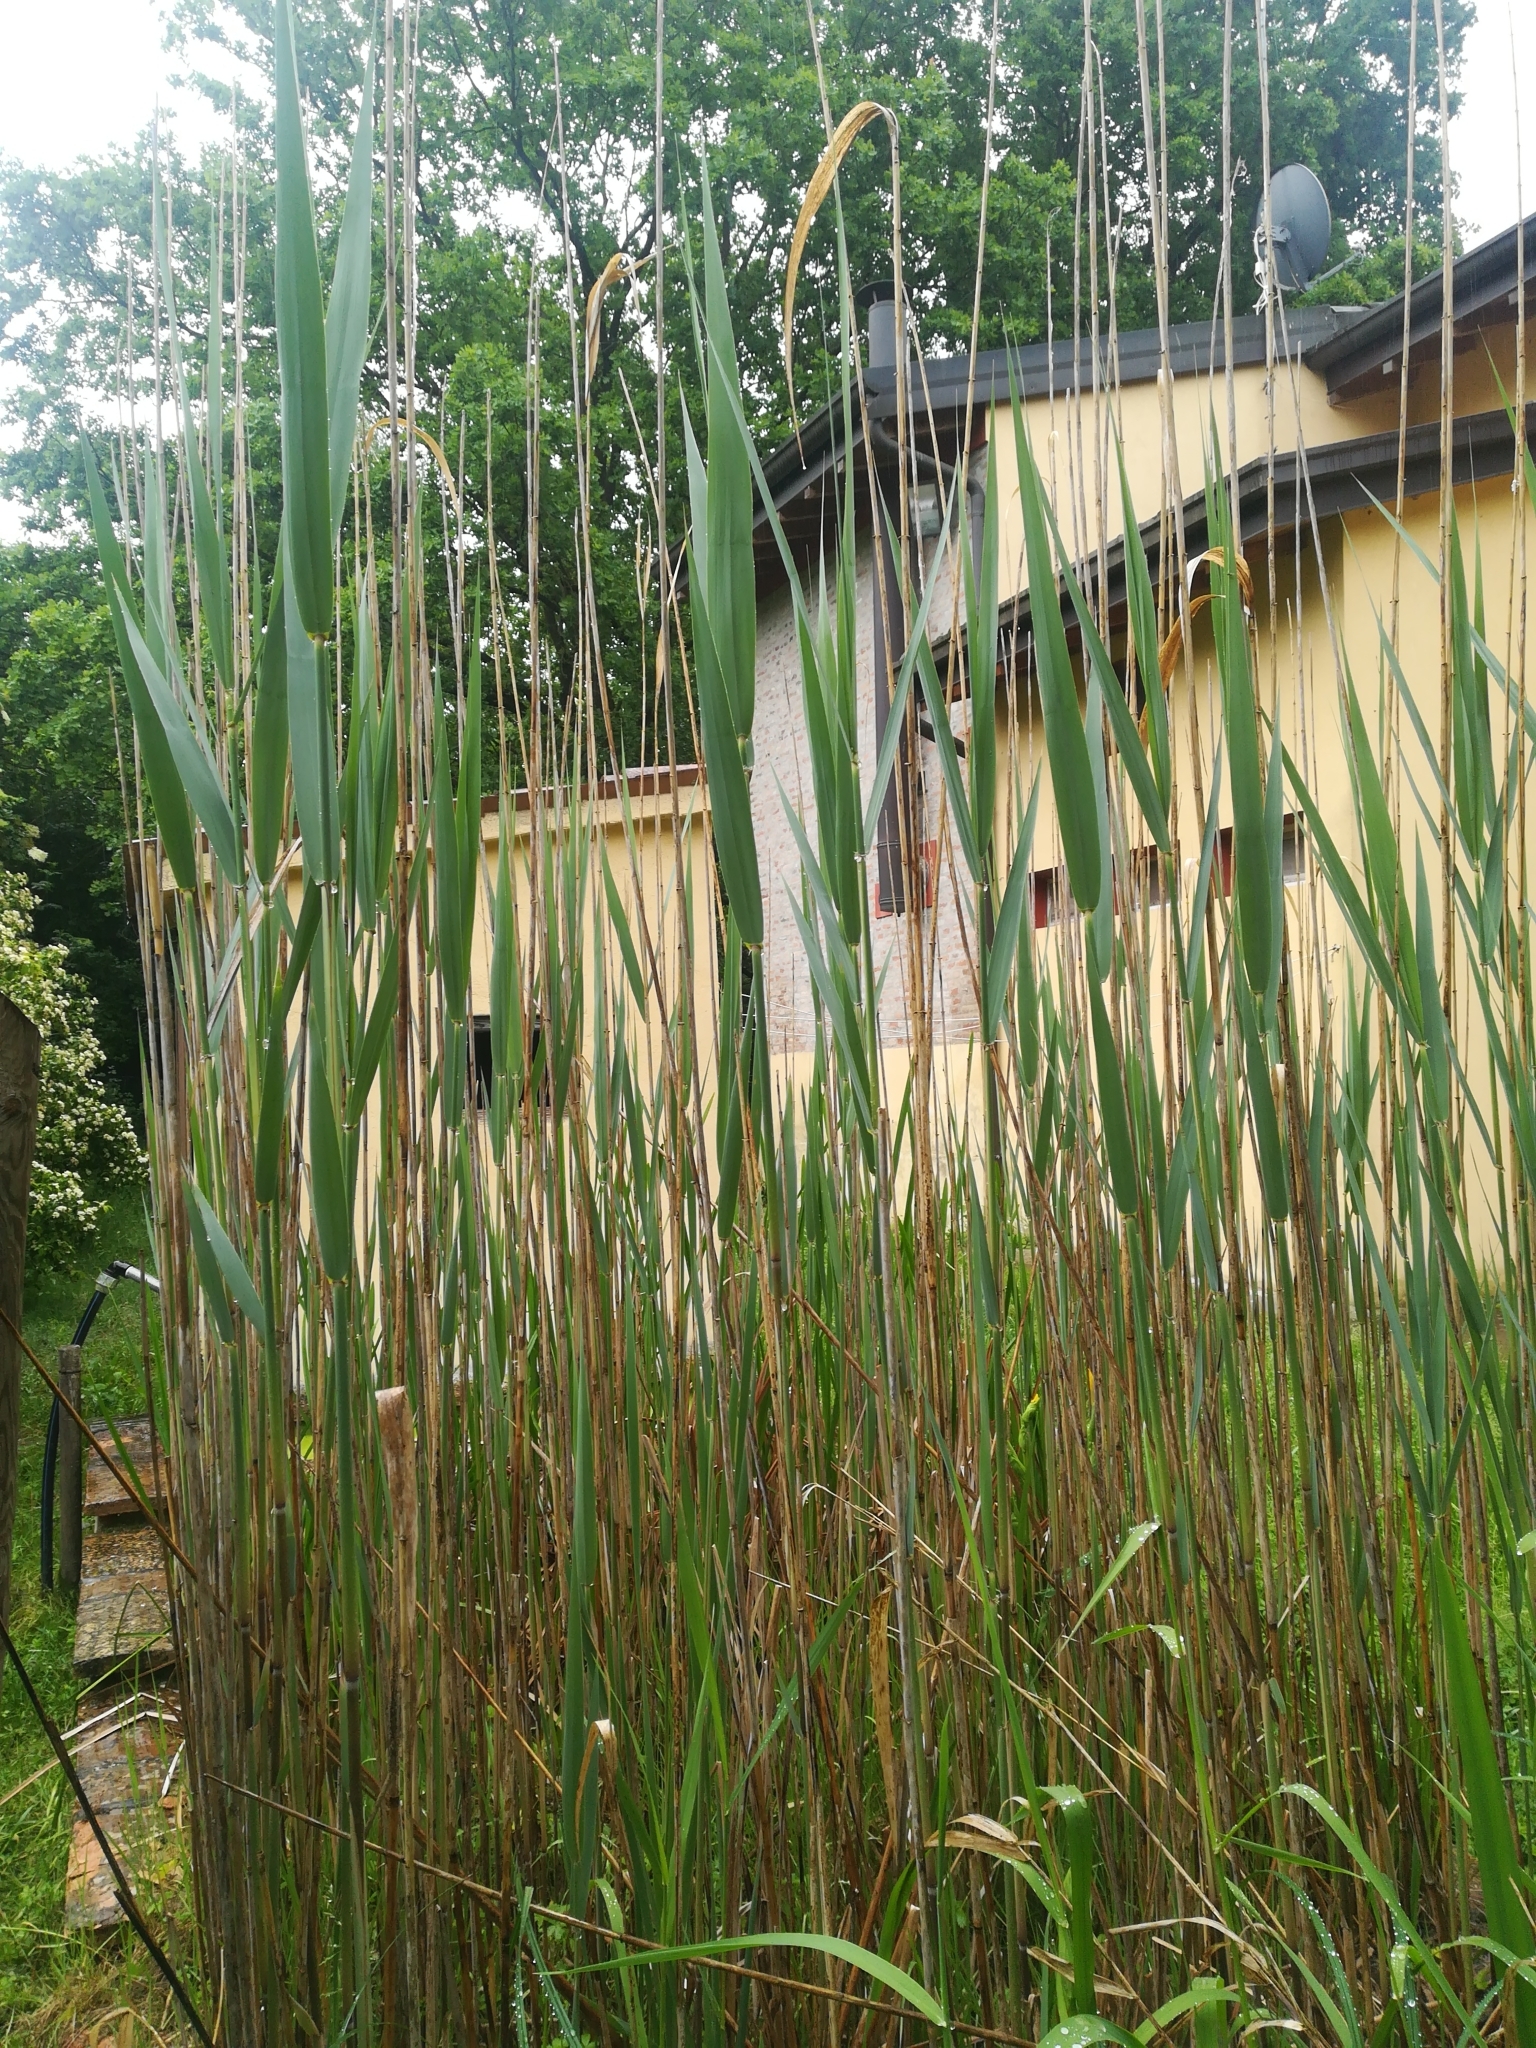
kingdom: Plantae
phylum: Tracheophyta
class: Liliopsida
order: Poales
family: Poaceae
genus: Phragmites
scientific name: Phragmites australis
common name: Common reed
